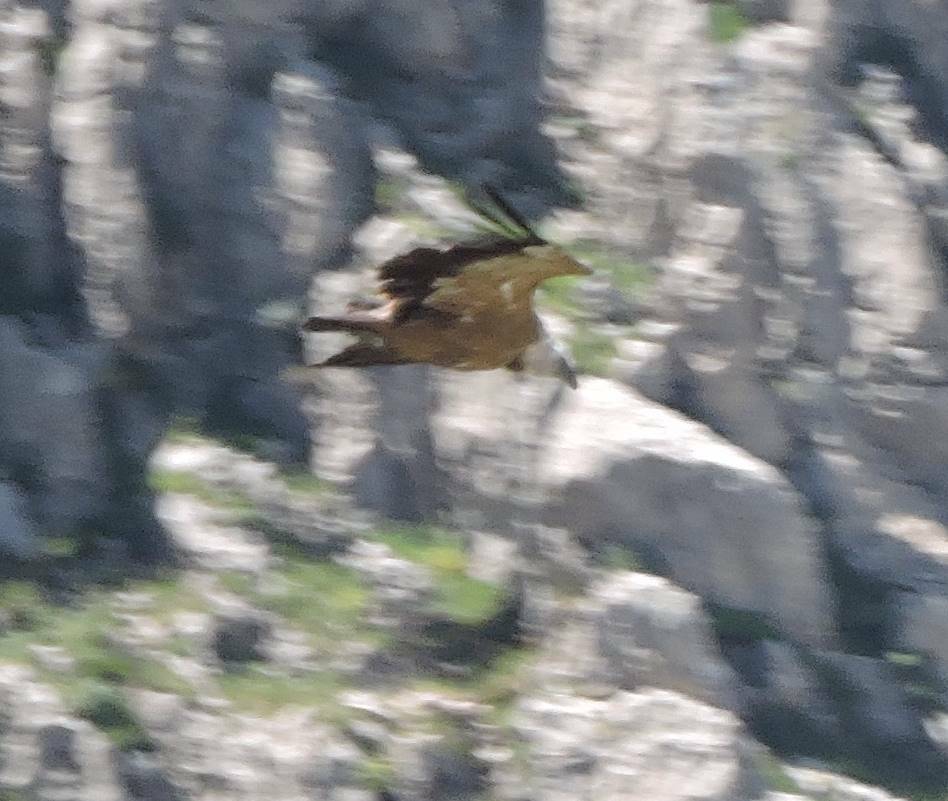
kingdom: Animalia
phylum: Chordata
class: Aves
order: Accipitriformes
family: Accipitridae
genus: Gyps
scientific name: Gyps fulvus
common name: Griffon vulture
